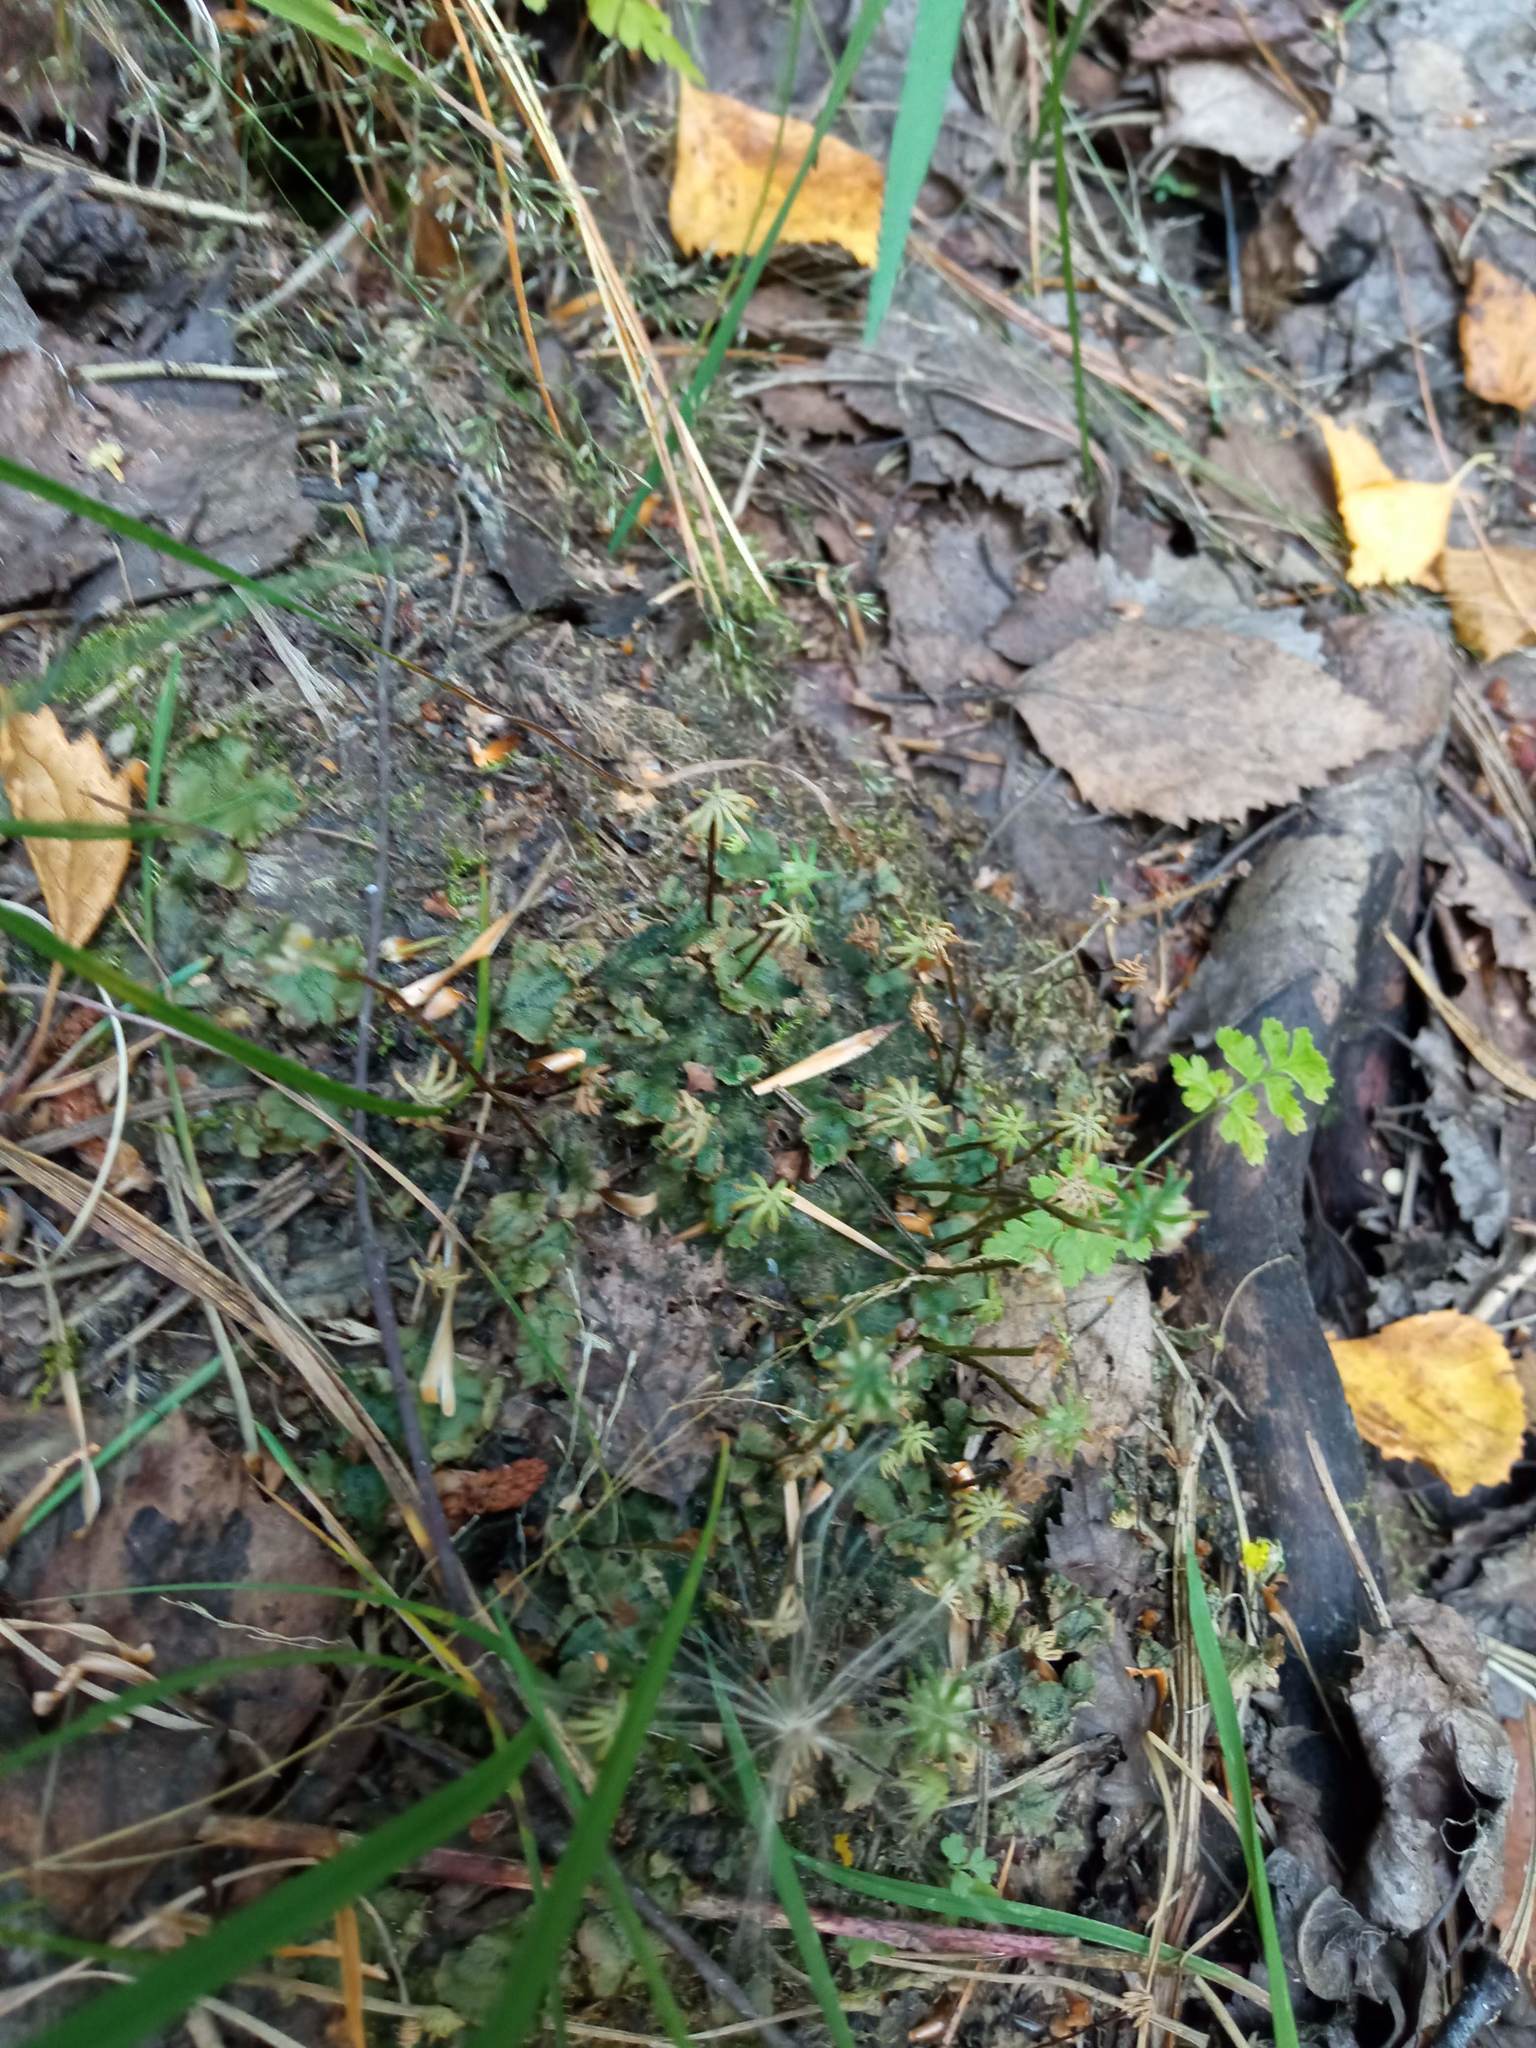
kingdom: Plantae
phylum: Marchantiophyta
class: Marchantiopsida
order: Marchantiales
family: Marchantiaceae
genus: Marchantia
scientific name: Marchantia polymorpha
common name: Common liverwort
